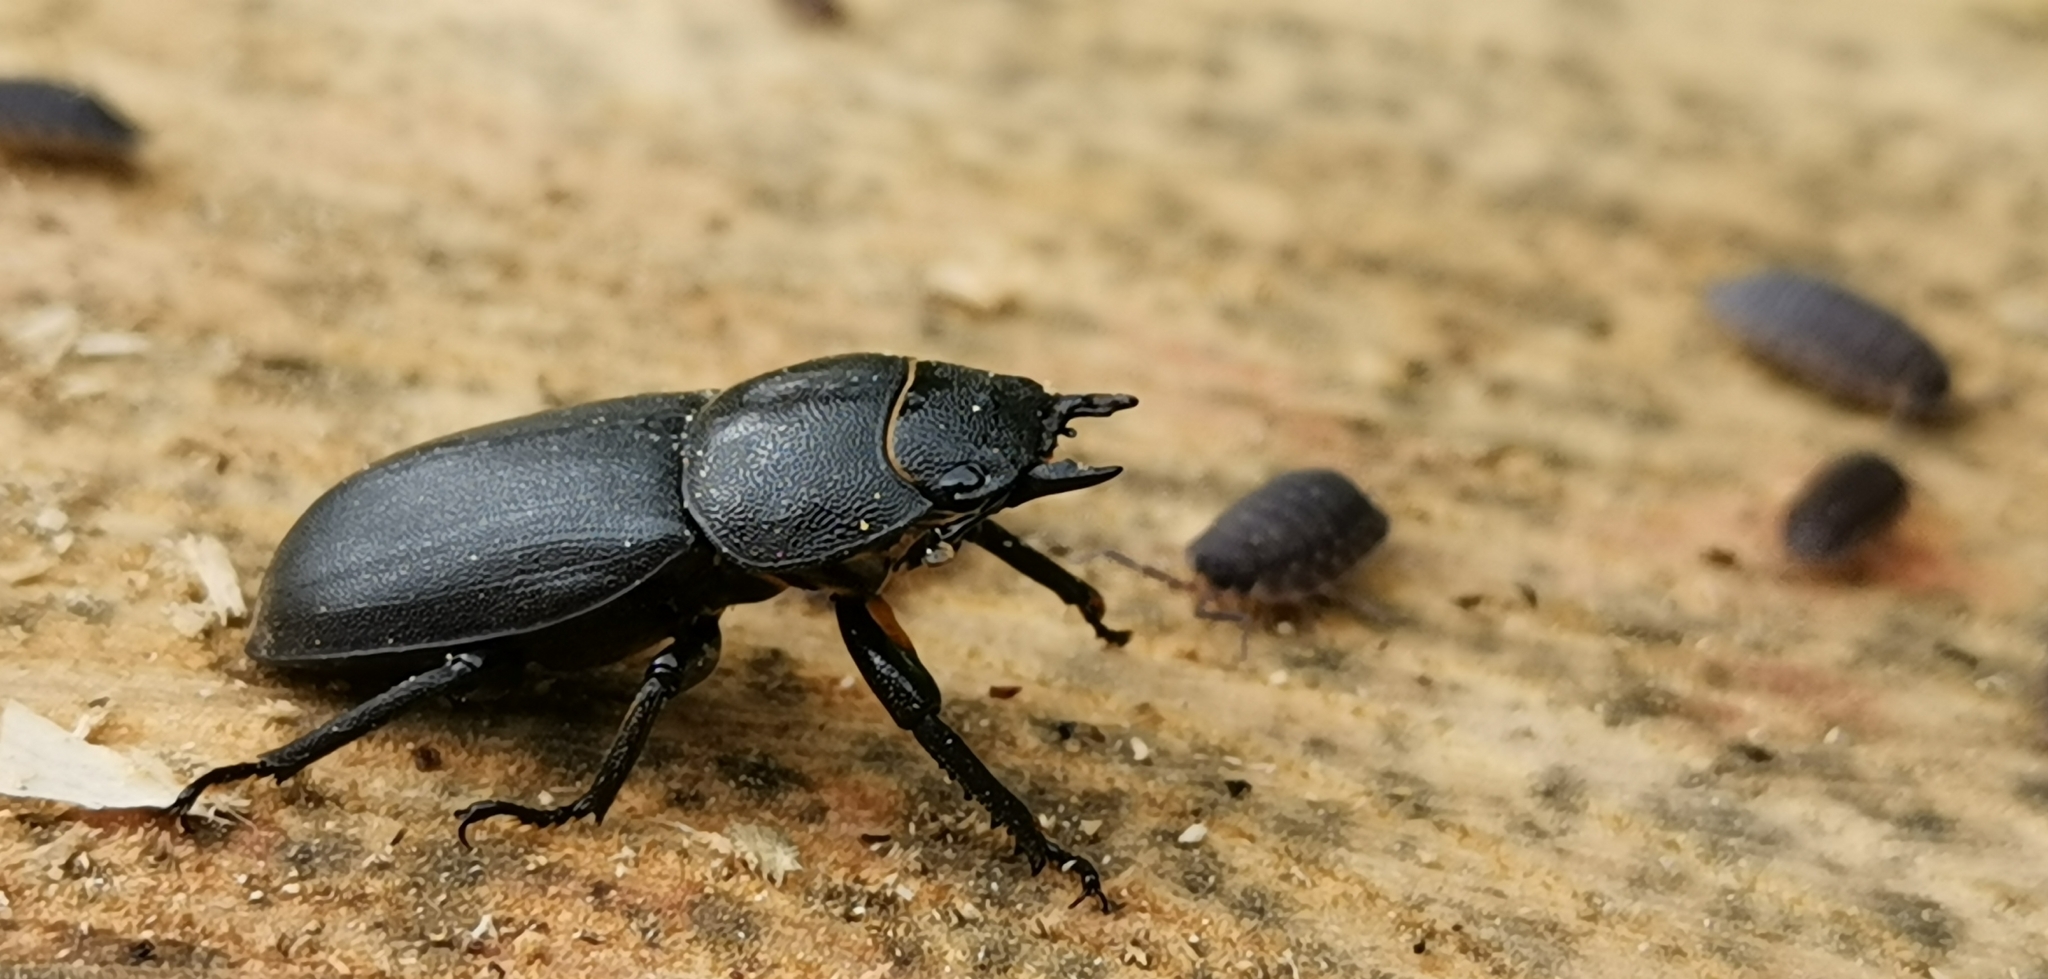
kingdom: Animalia
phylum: Arthropoda
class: Insecta
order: Coleoptera
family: Lucanidae
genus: Dorcus
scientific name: Dorcus parallelipipedus
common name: Lesser stag beetle
